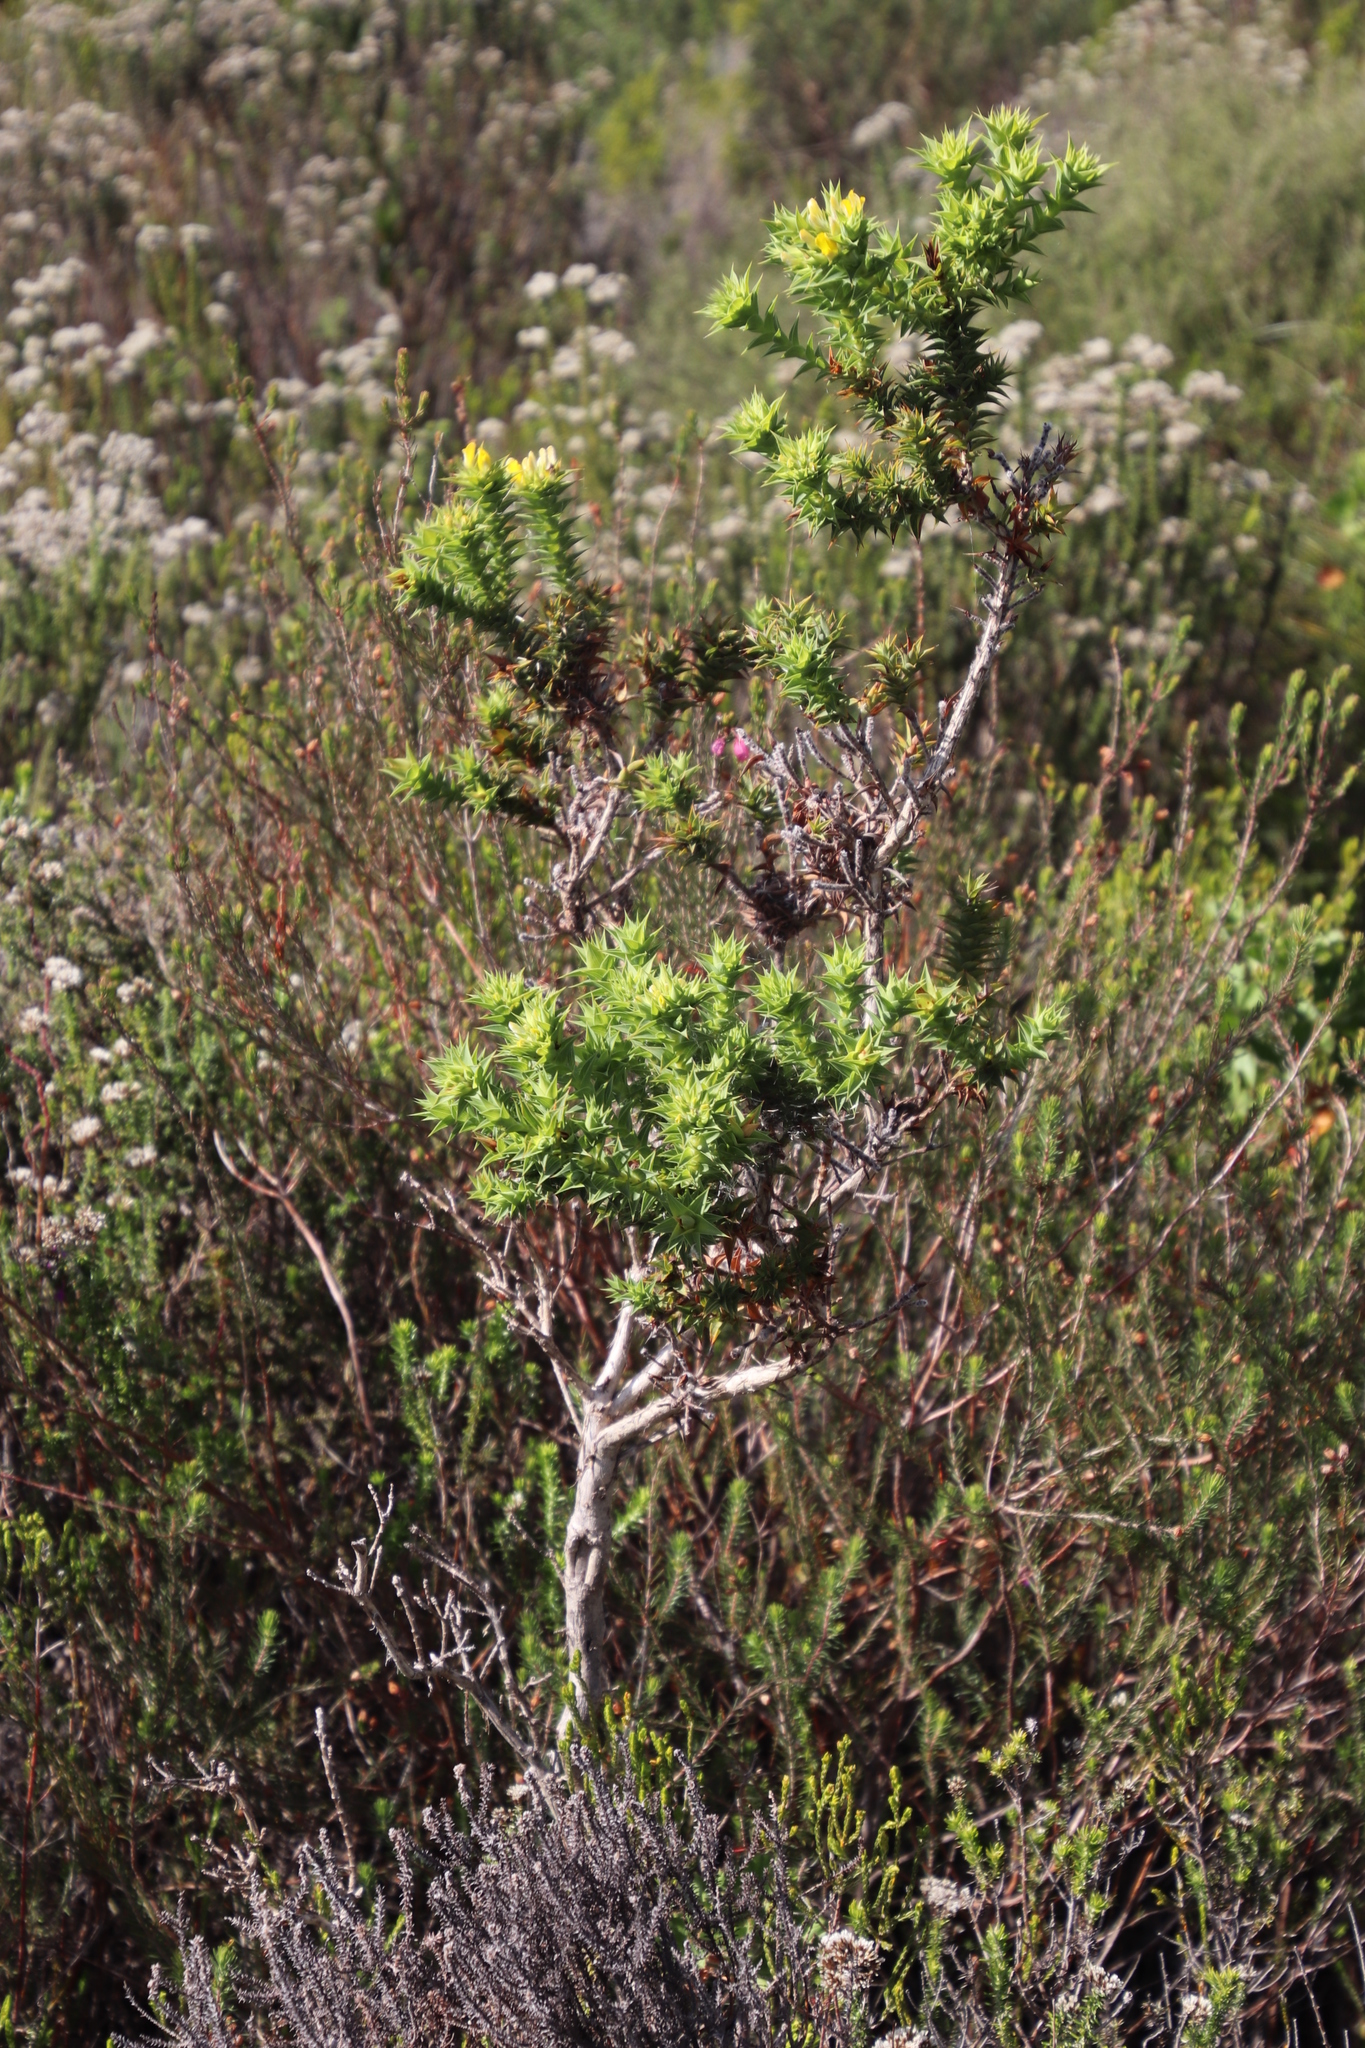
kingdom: Plantae
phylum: Tracheophyta
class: Magnoliopsida
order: Fabales
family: Fabaceae
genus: Aspalathus
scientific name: Aspalathus cordata
